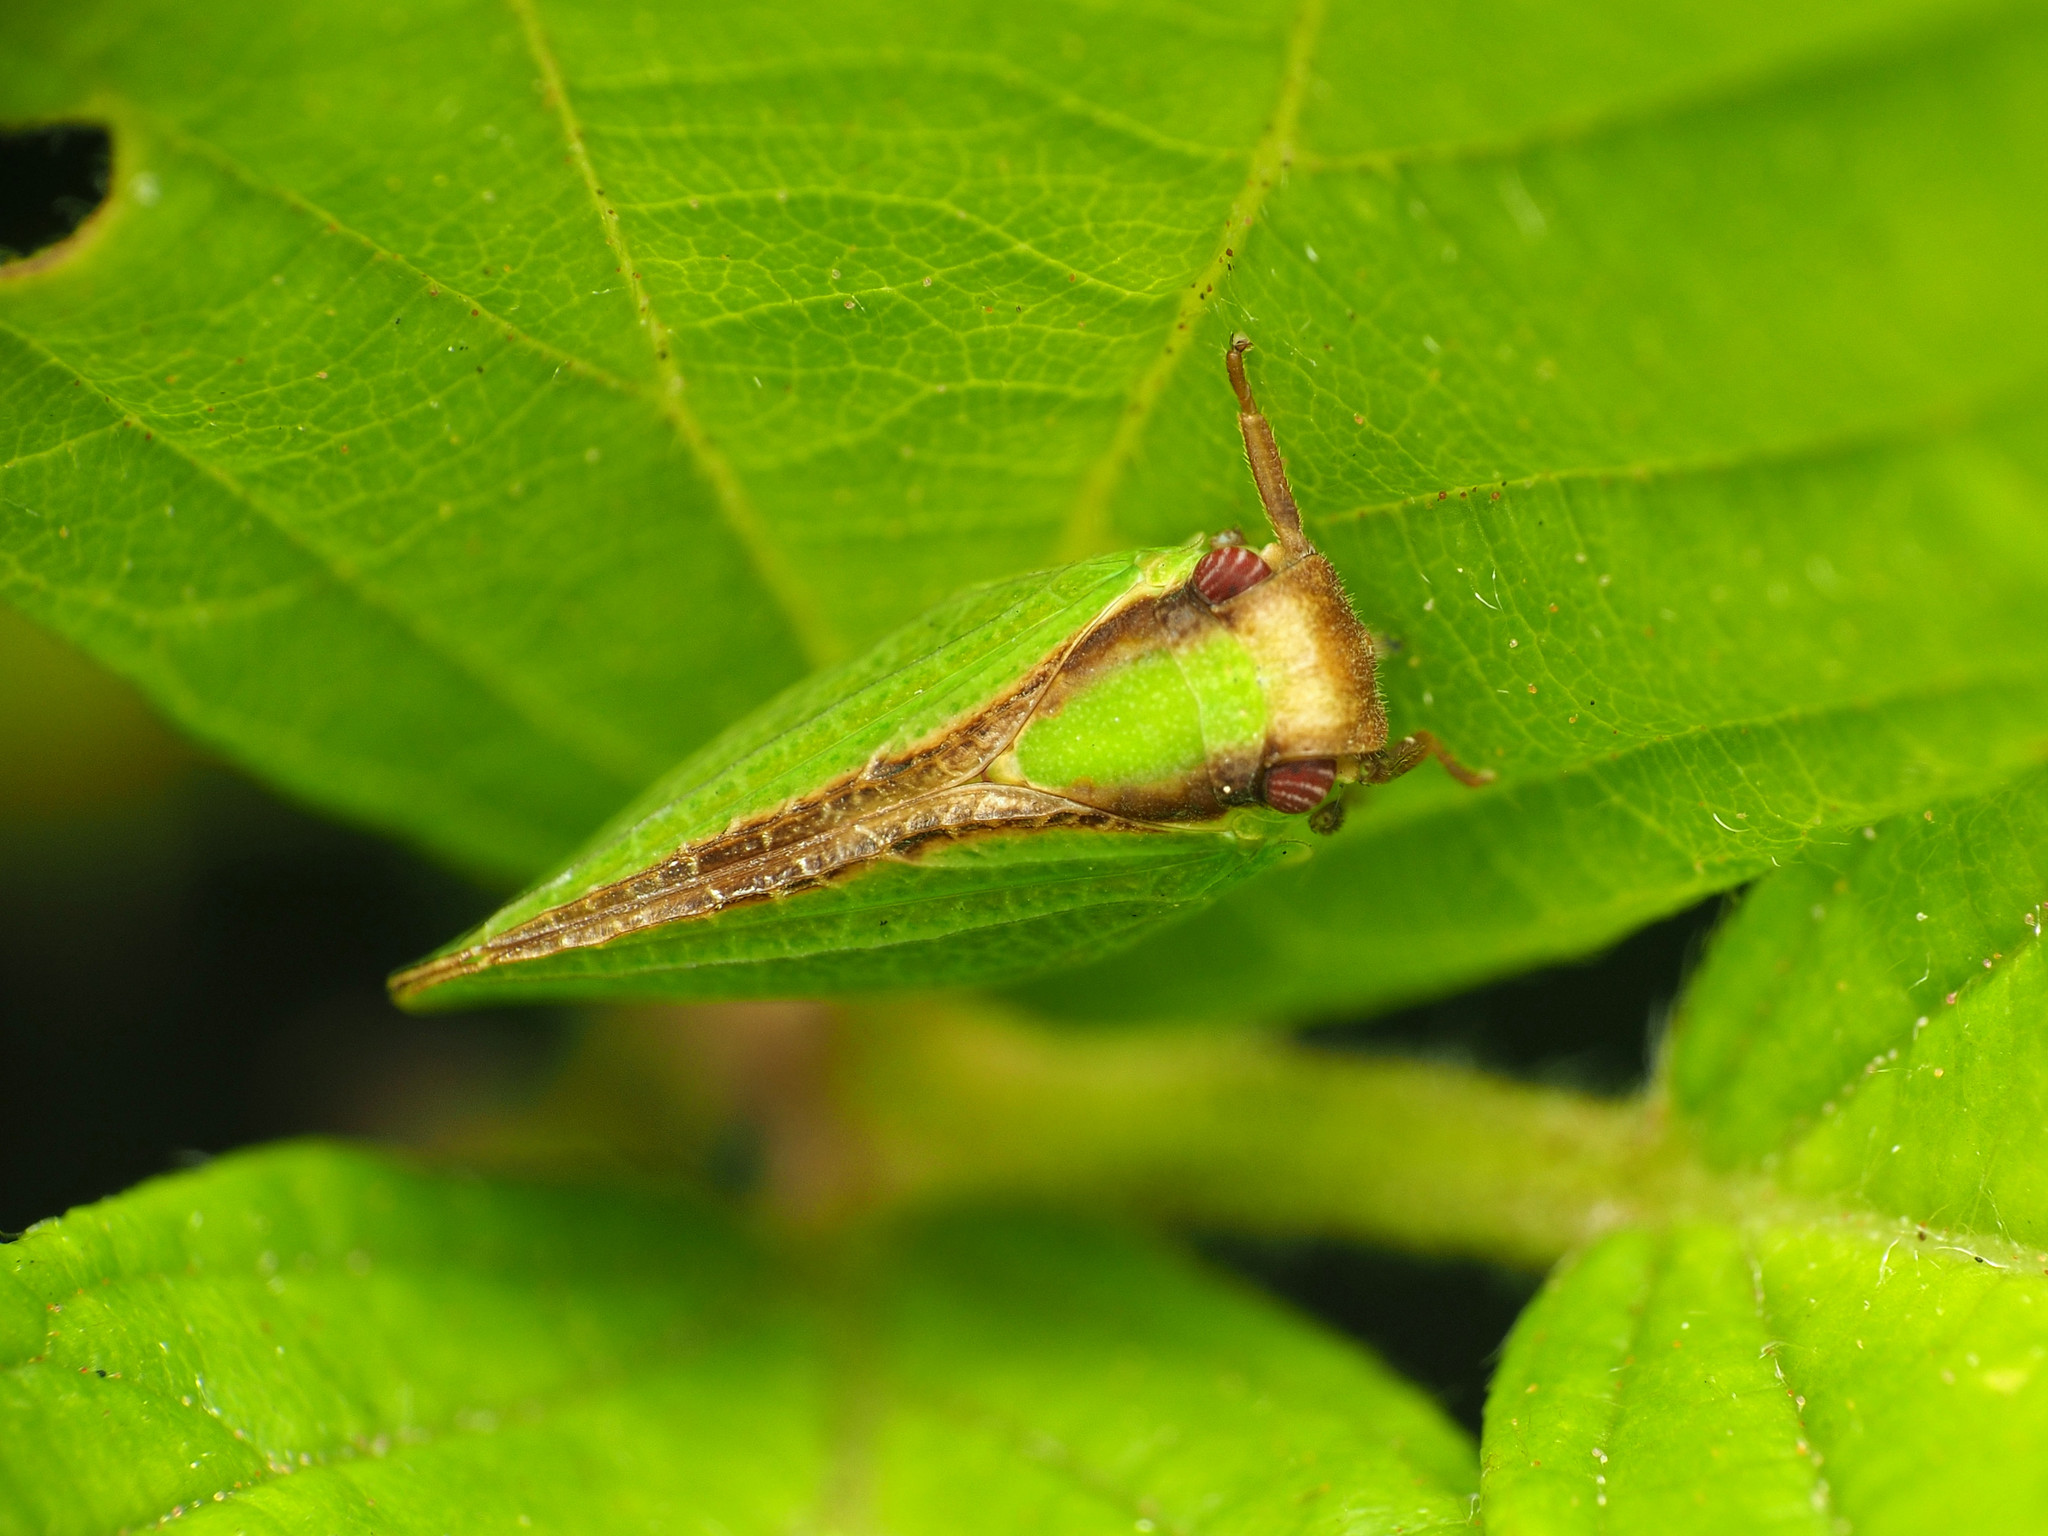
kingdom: Animalia
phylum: Arthropoda
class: Insecta
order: Hemiptera
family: Acanaloniidae
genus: Acanalonia
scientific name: Acanalonia bivittata
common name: Two-striped planthopper
